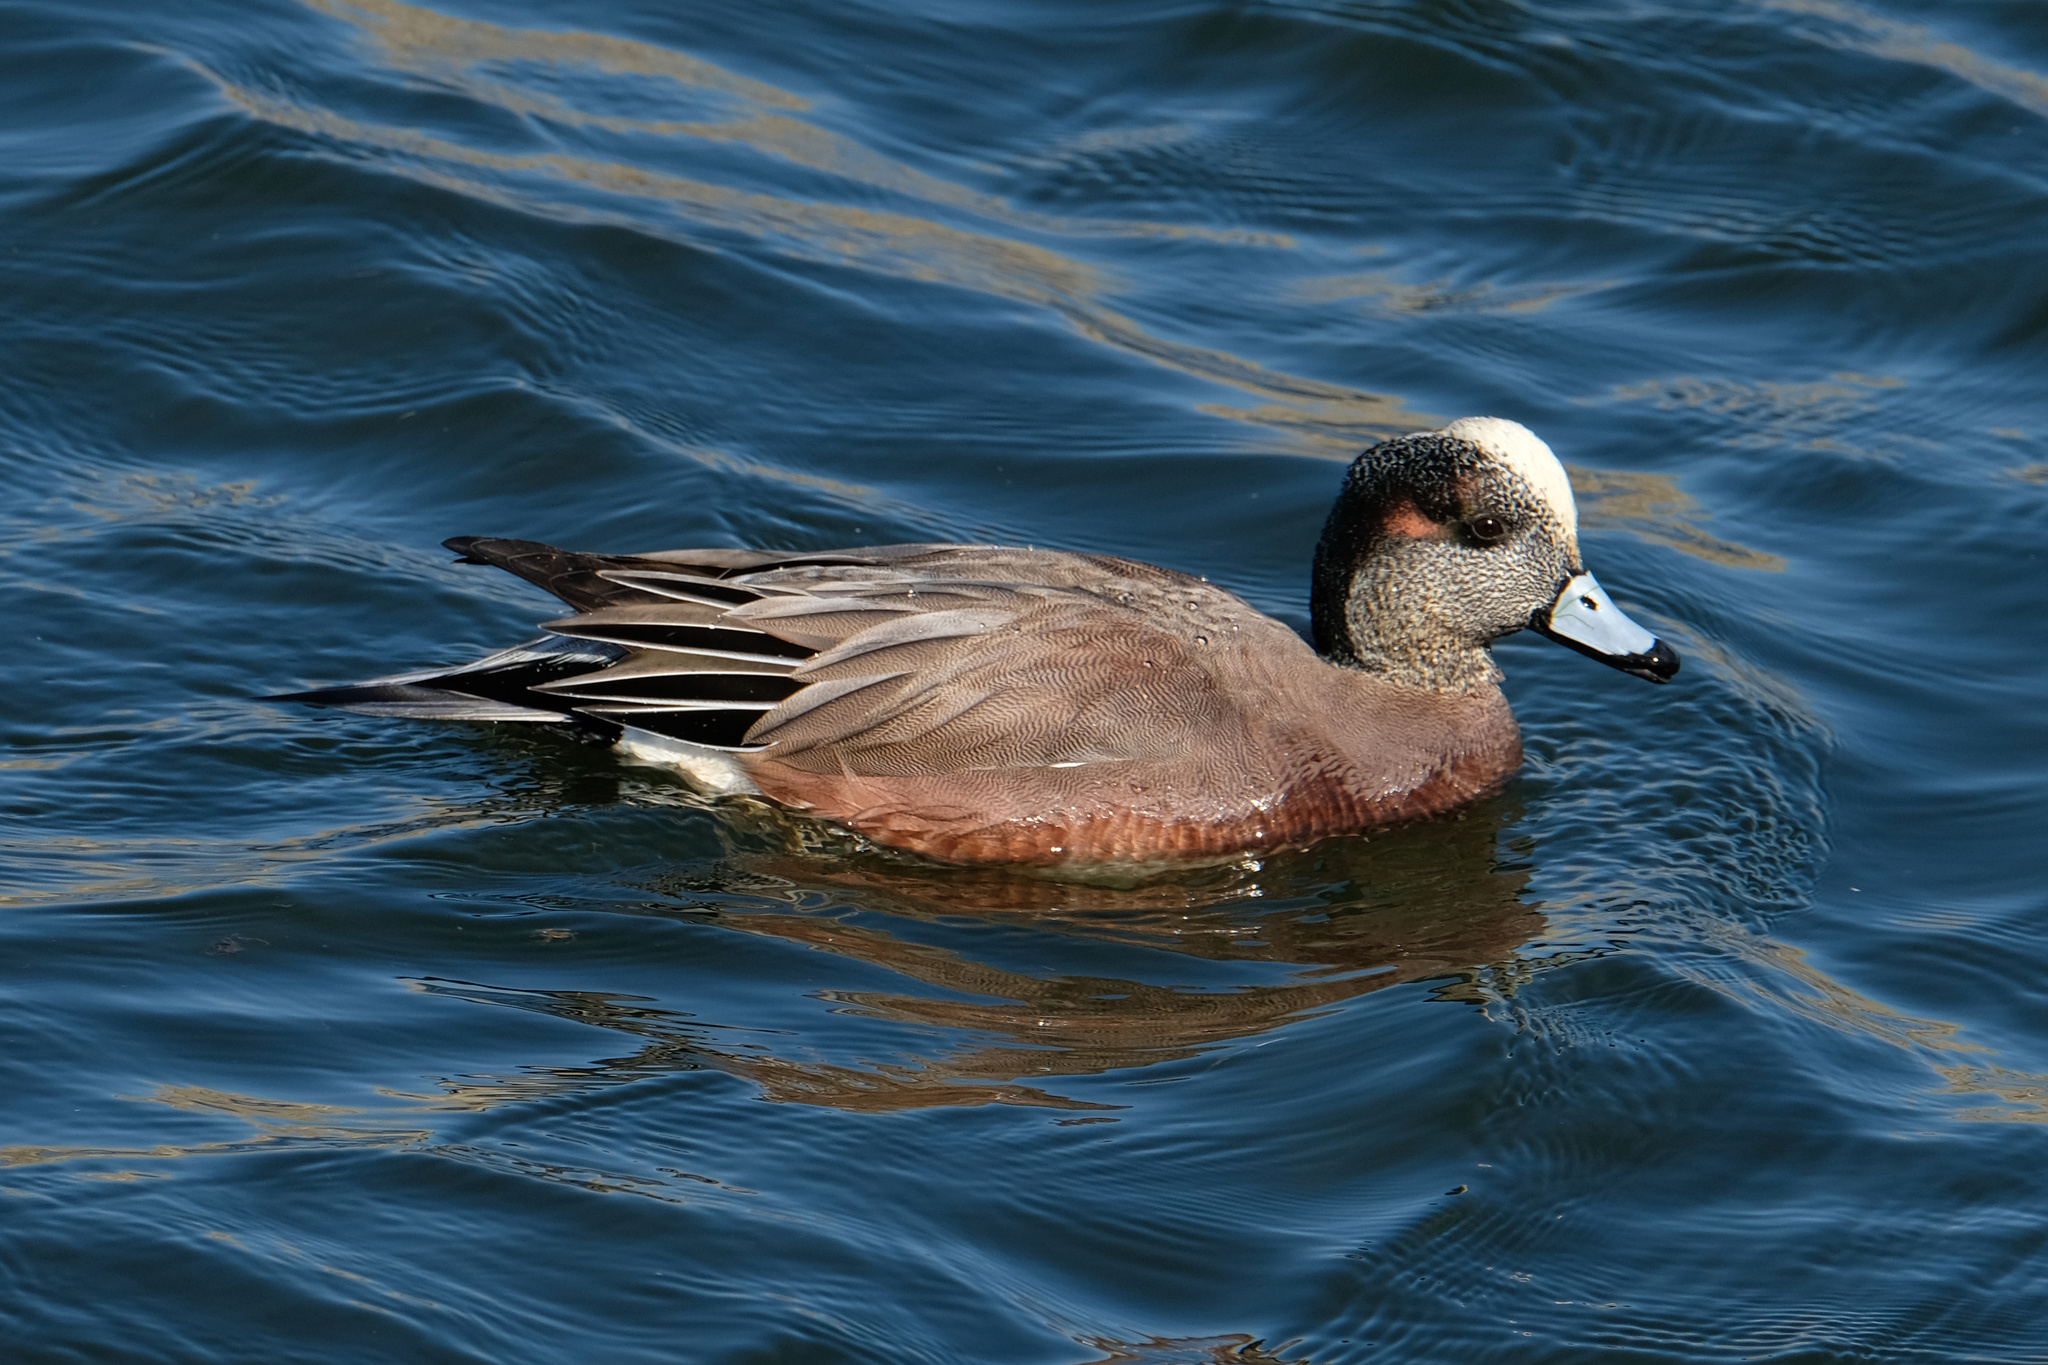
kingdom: Animalia
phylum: Chordata
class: Aves
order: Anseriformes
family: Anatidae
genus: Mareca
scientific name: Mareca
